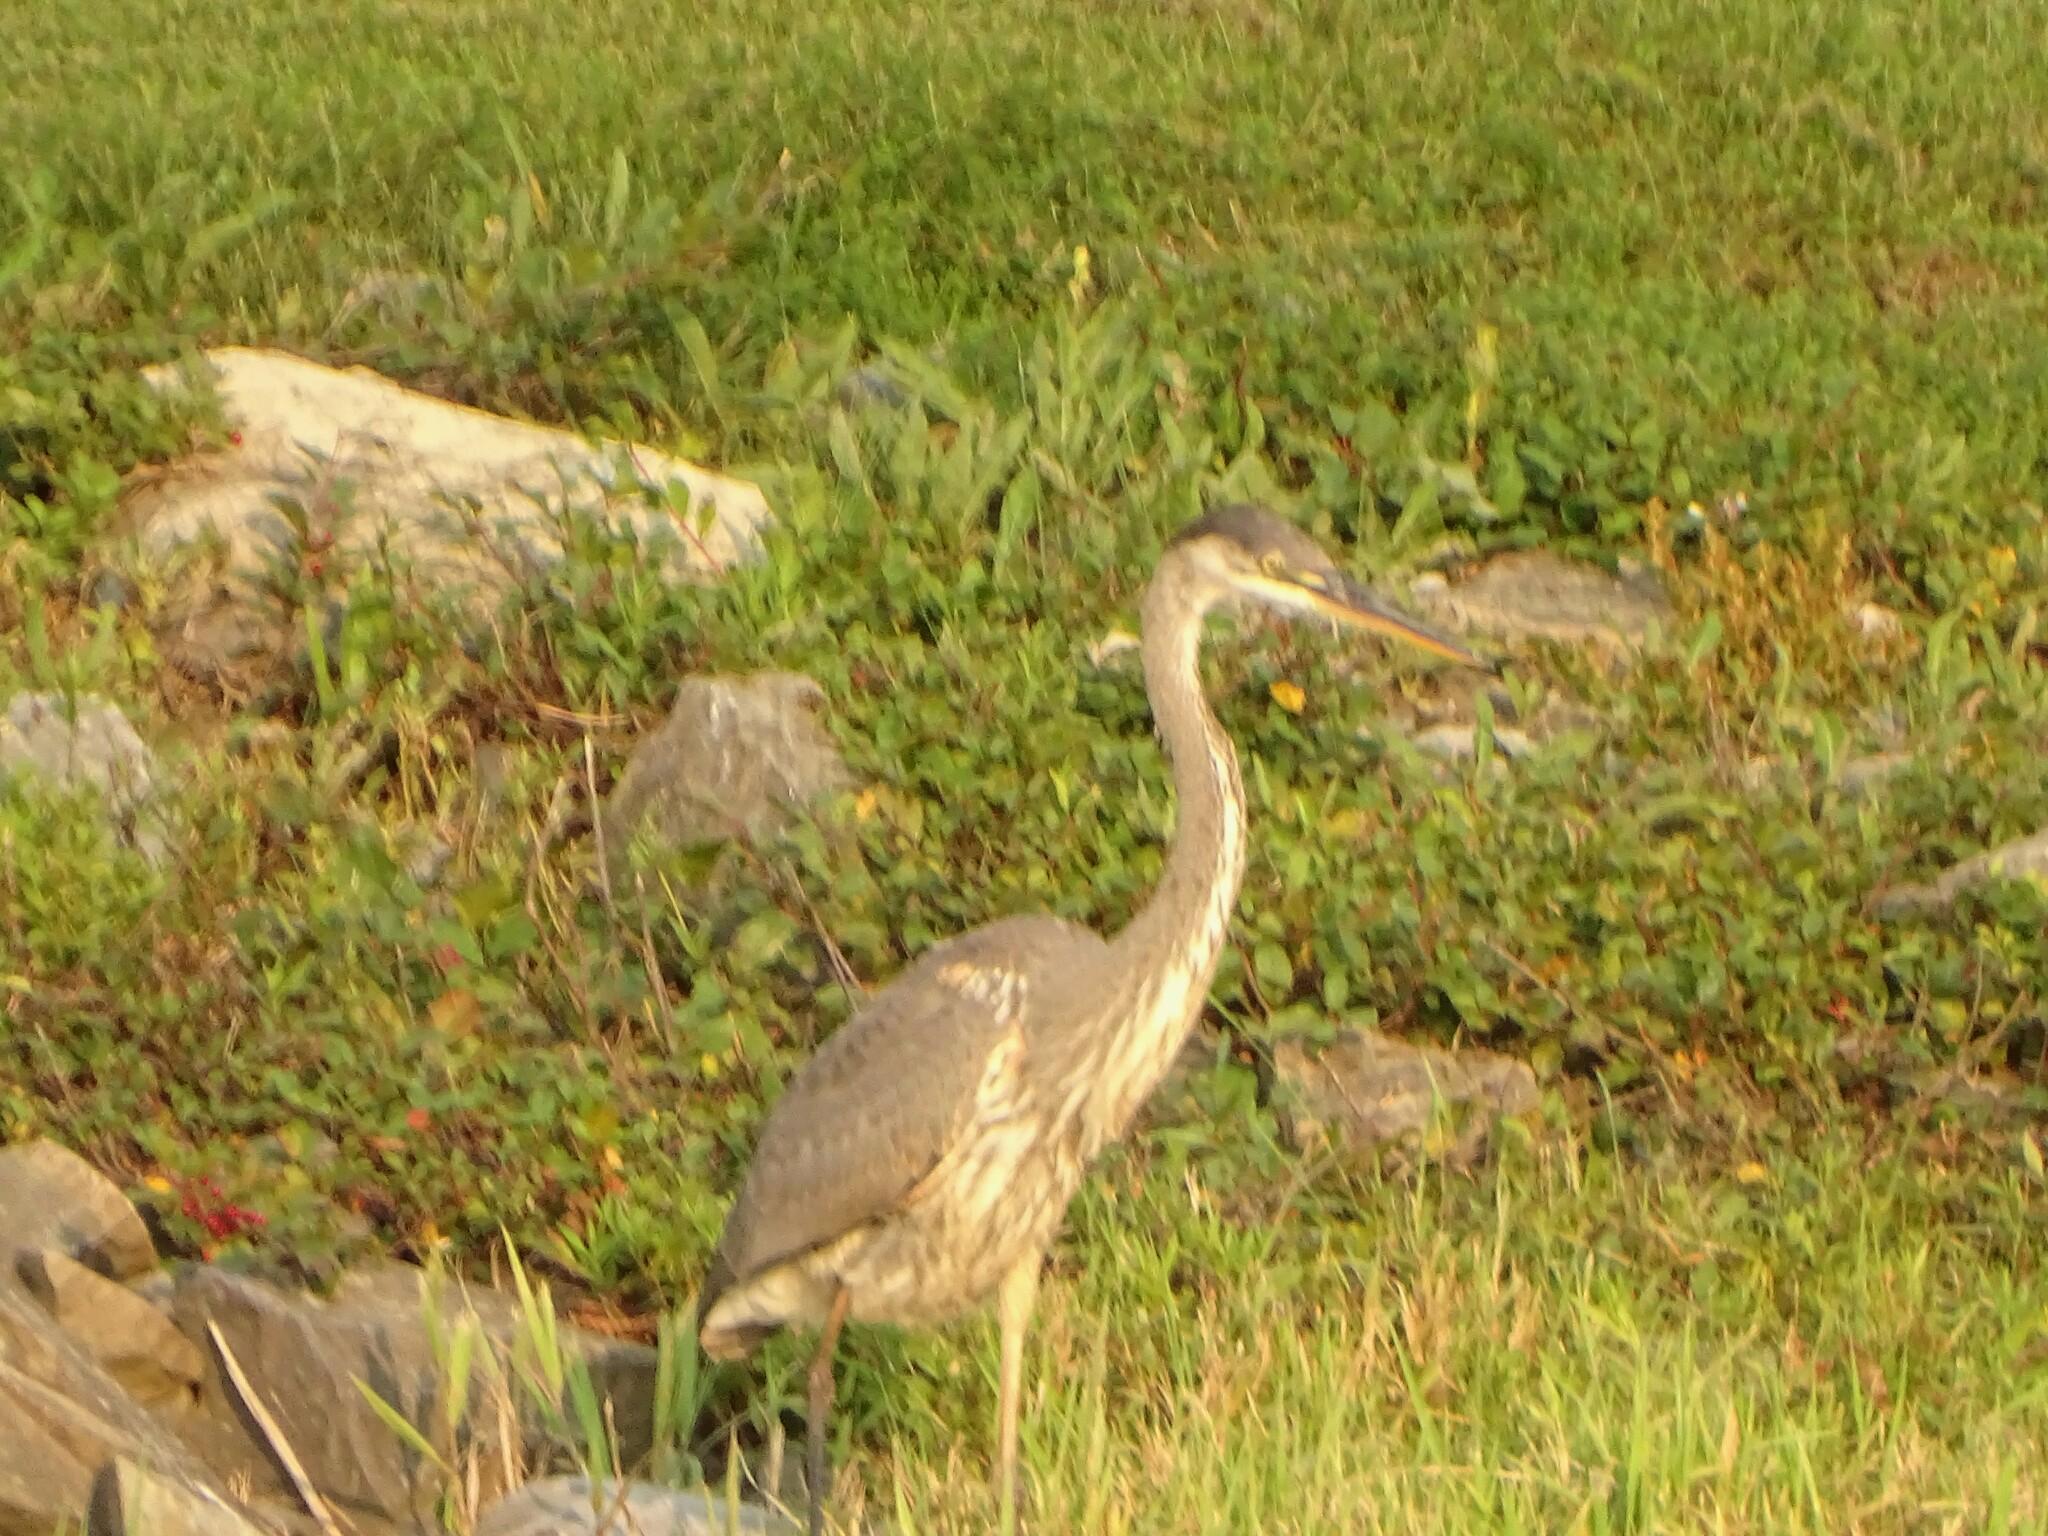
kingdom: Animalia
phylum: Chordata
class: Aves
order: Pelecaniformes
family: Ardeidae
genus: Ardea
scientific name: Ardea herodias
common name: Great blue heron
